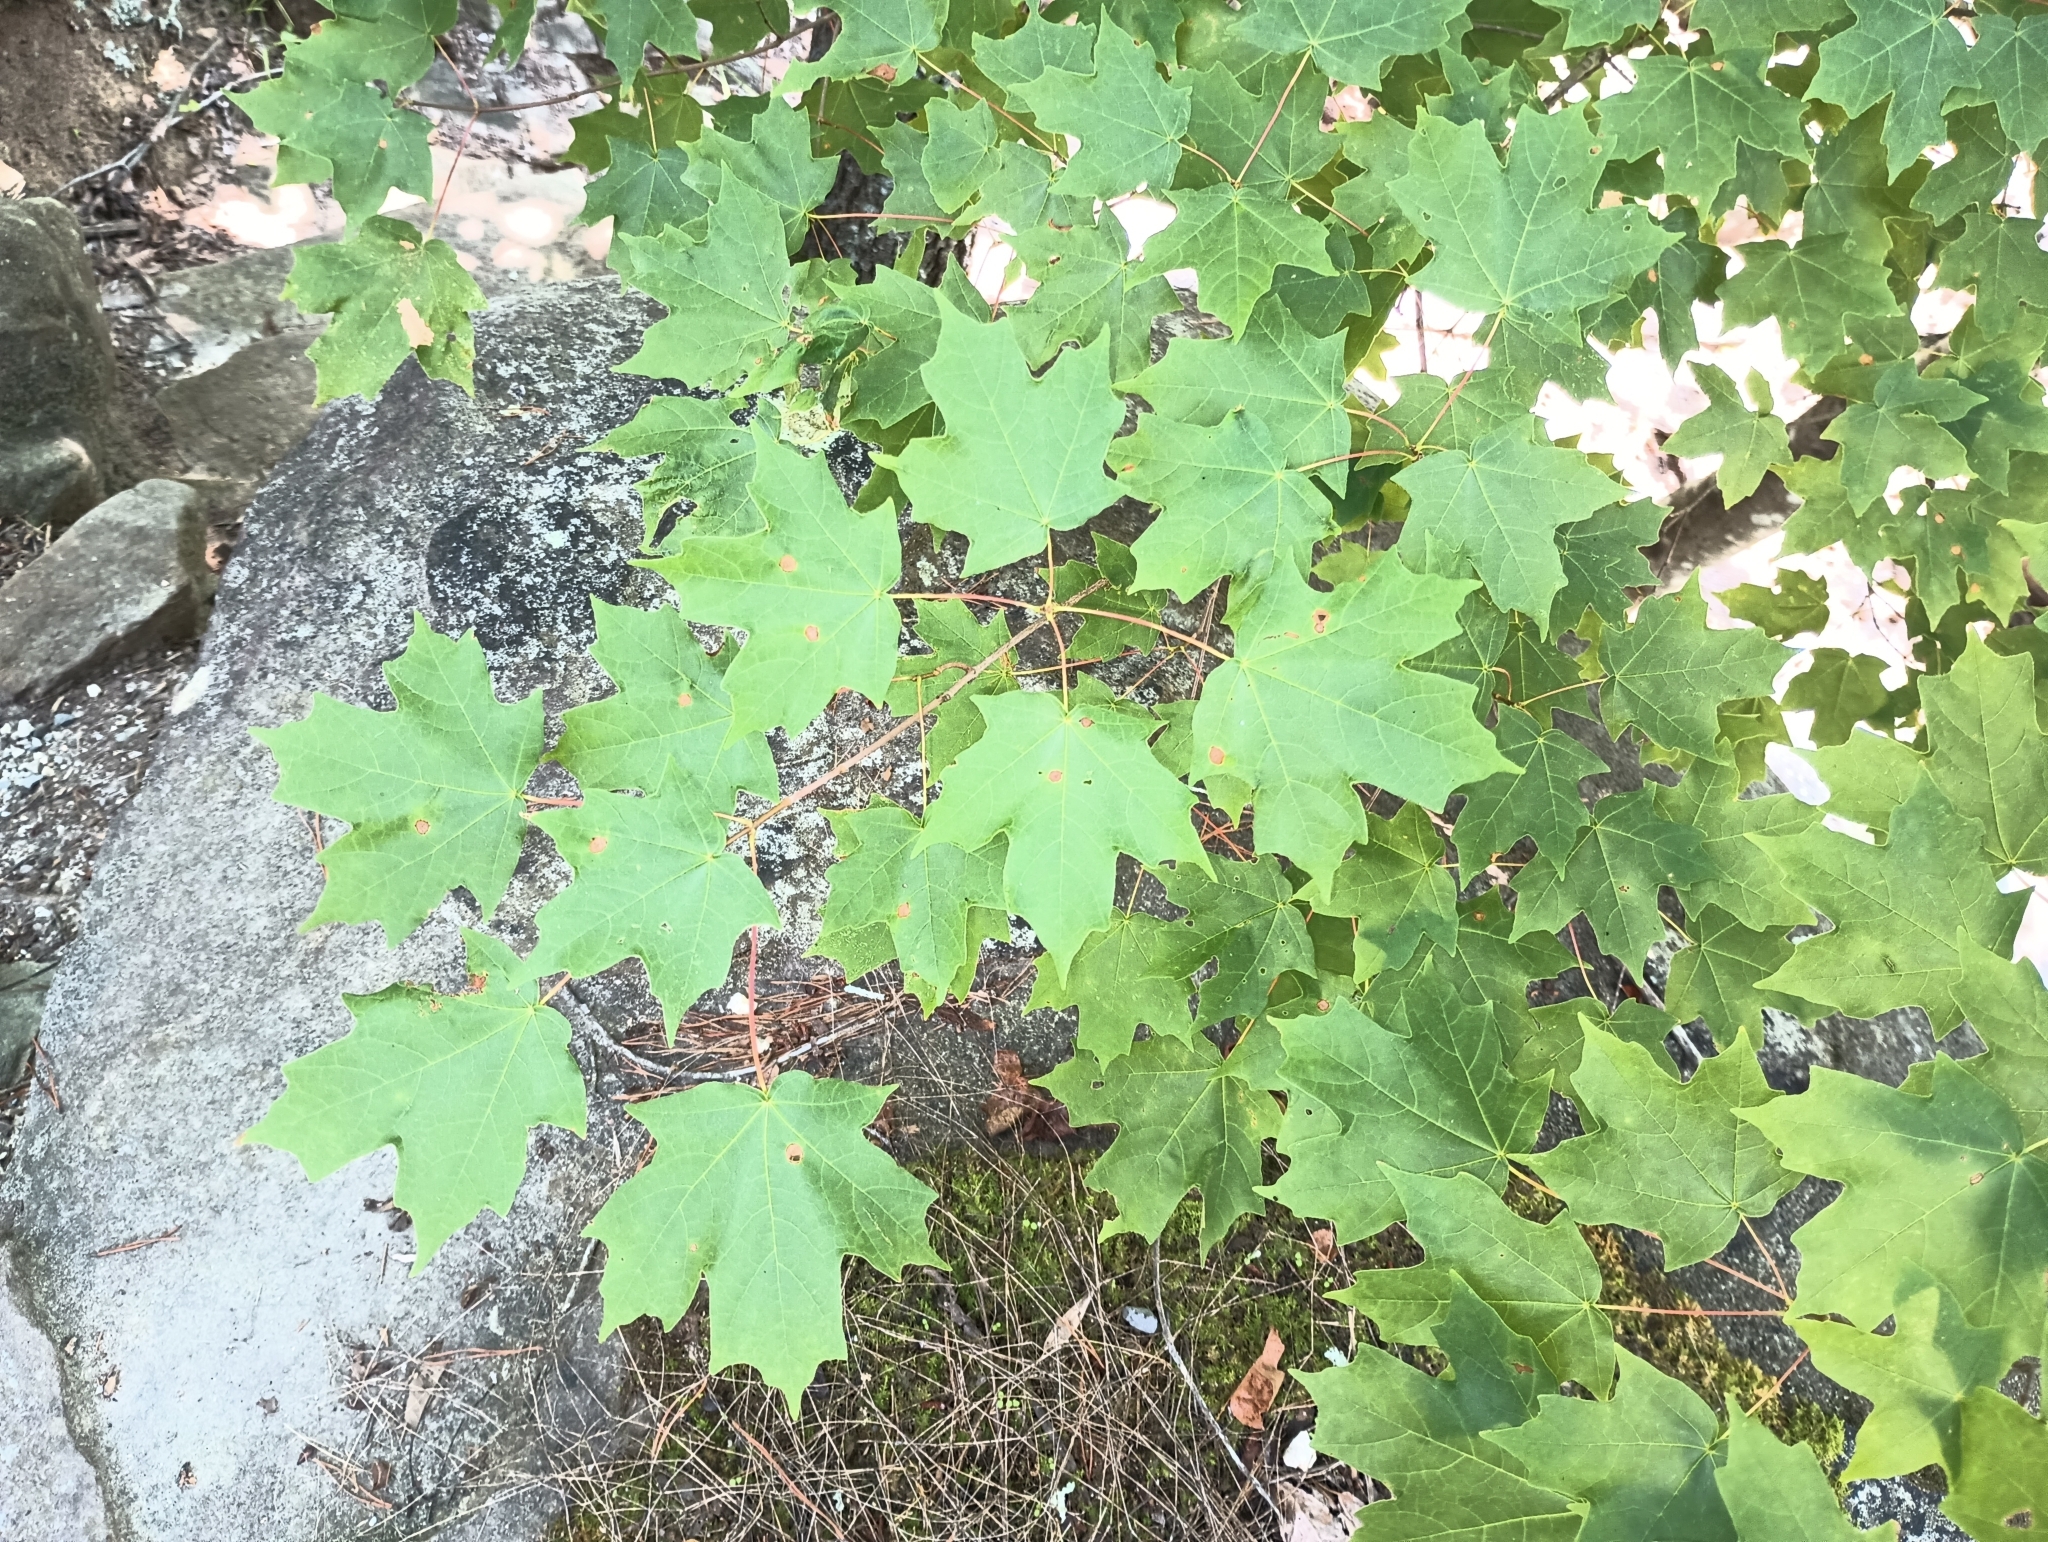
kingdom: Plantae
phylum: Tracheophyta
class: Magnoliopsida
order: Sapindales
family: Sapindaceae
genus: Acer
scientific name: Acer saccharum
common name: Sugar maple
